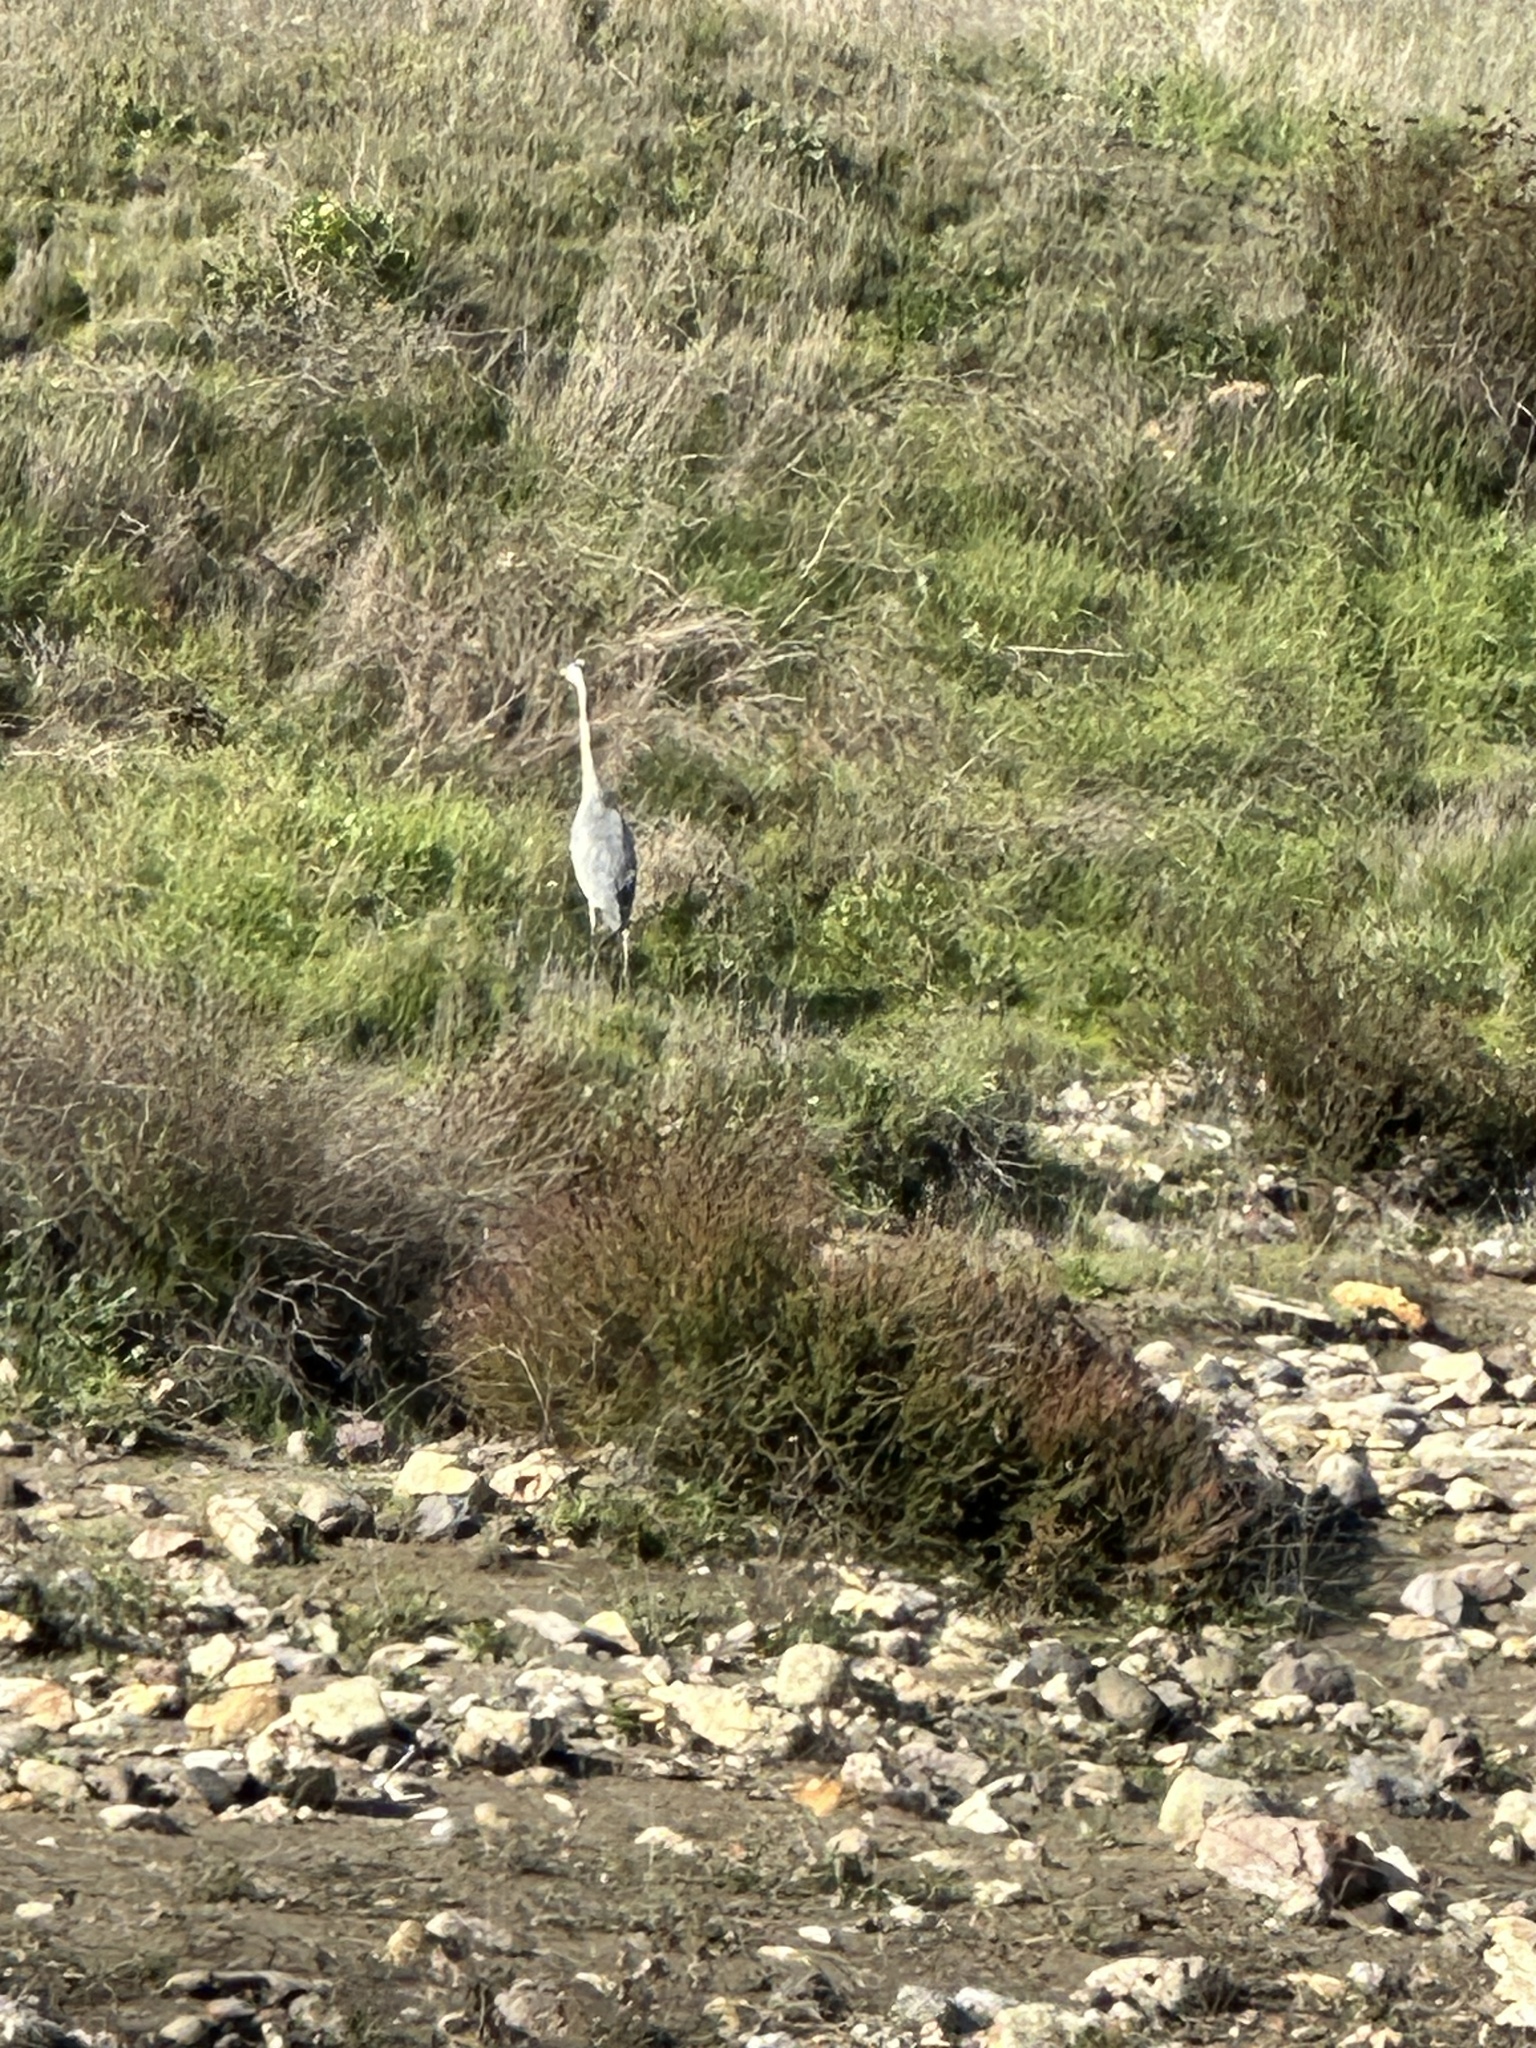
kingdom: Animalia
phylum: Chordata
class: Aves
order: Pelecaniformes
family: Ardeidae
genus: Ardea
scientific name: Ardea herodias
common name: Great blue heron
